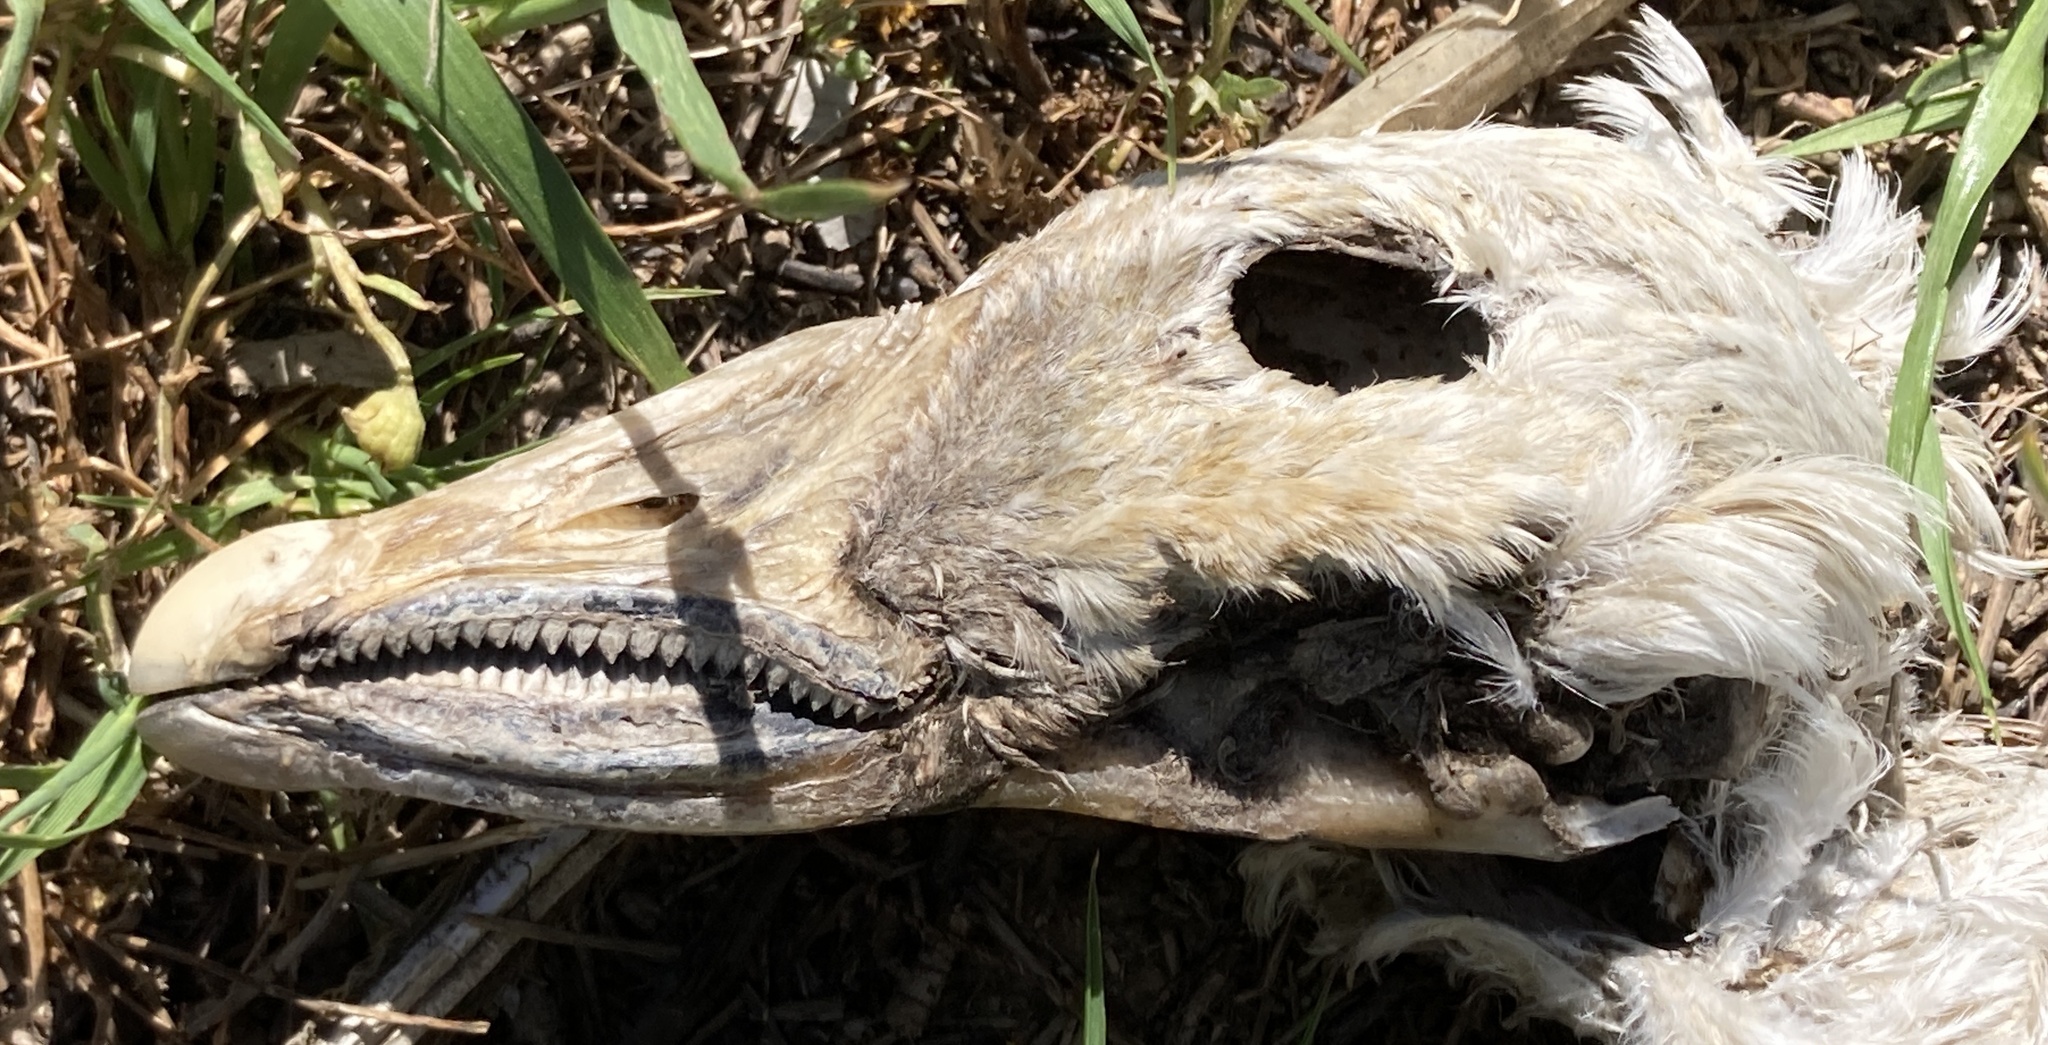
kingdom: Animalia
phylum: Chordata
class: Aves
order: Anseriformes
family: Anatidae
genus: Anser
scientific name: Anser caerulescens
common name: Snow goose
